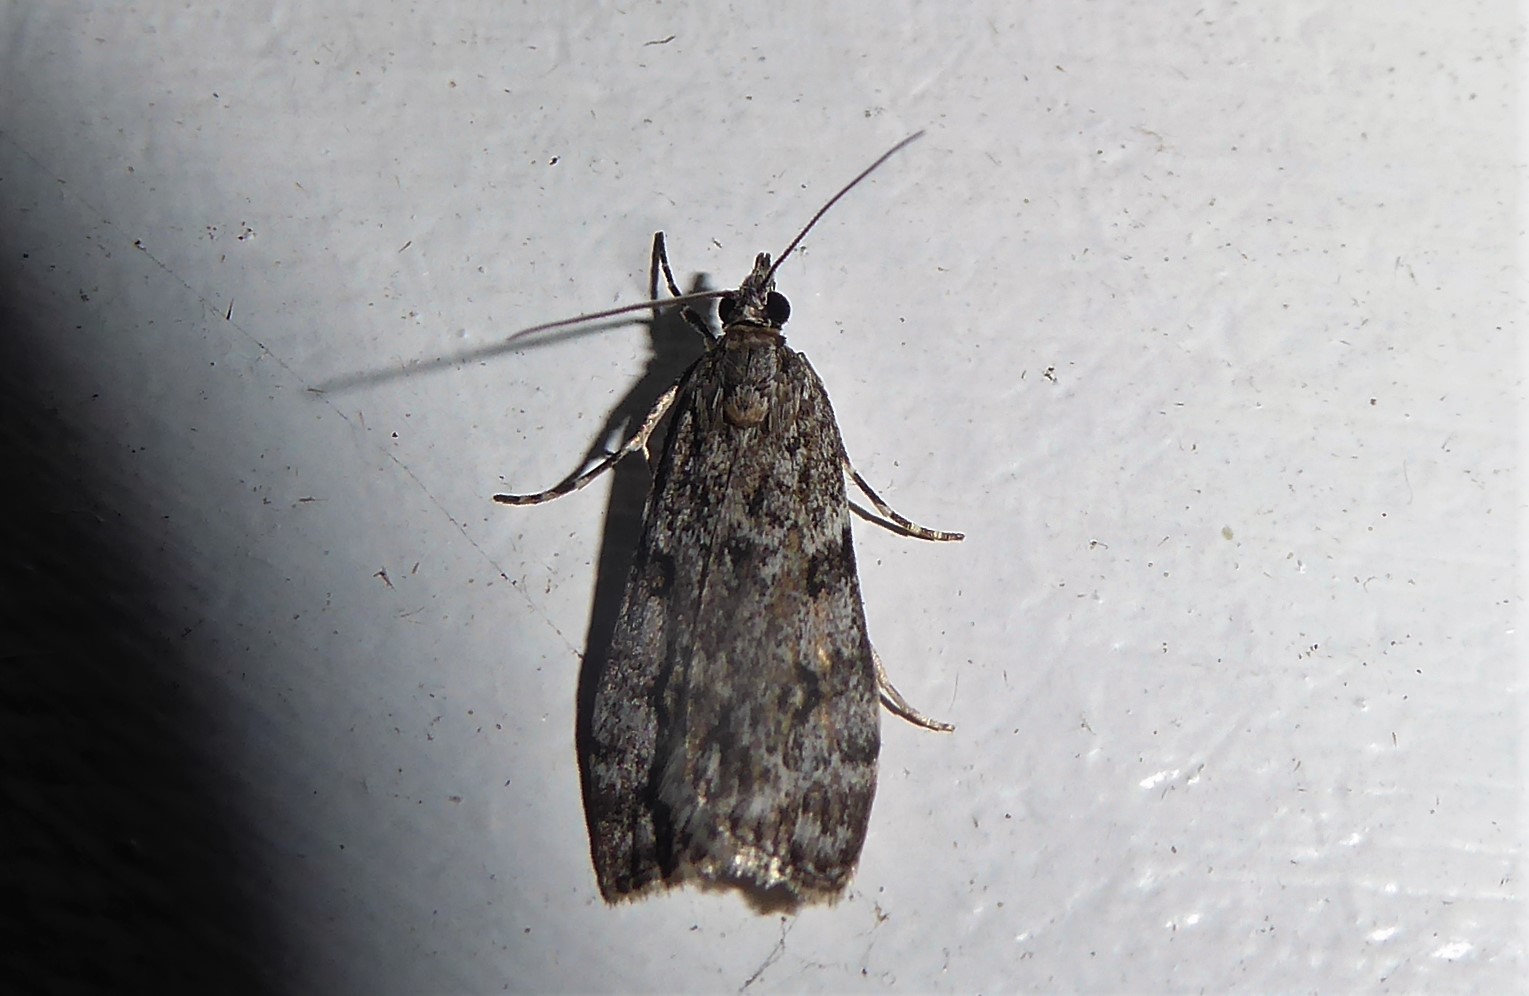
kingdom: Animalia
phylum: Arthropoda
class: Insecta
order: Lepidoptera
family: Crambidae
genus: Eudonia
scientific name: Eudonia cymatias
